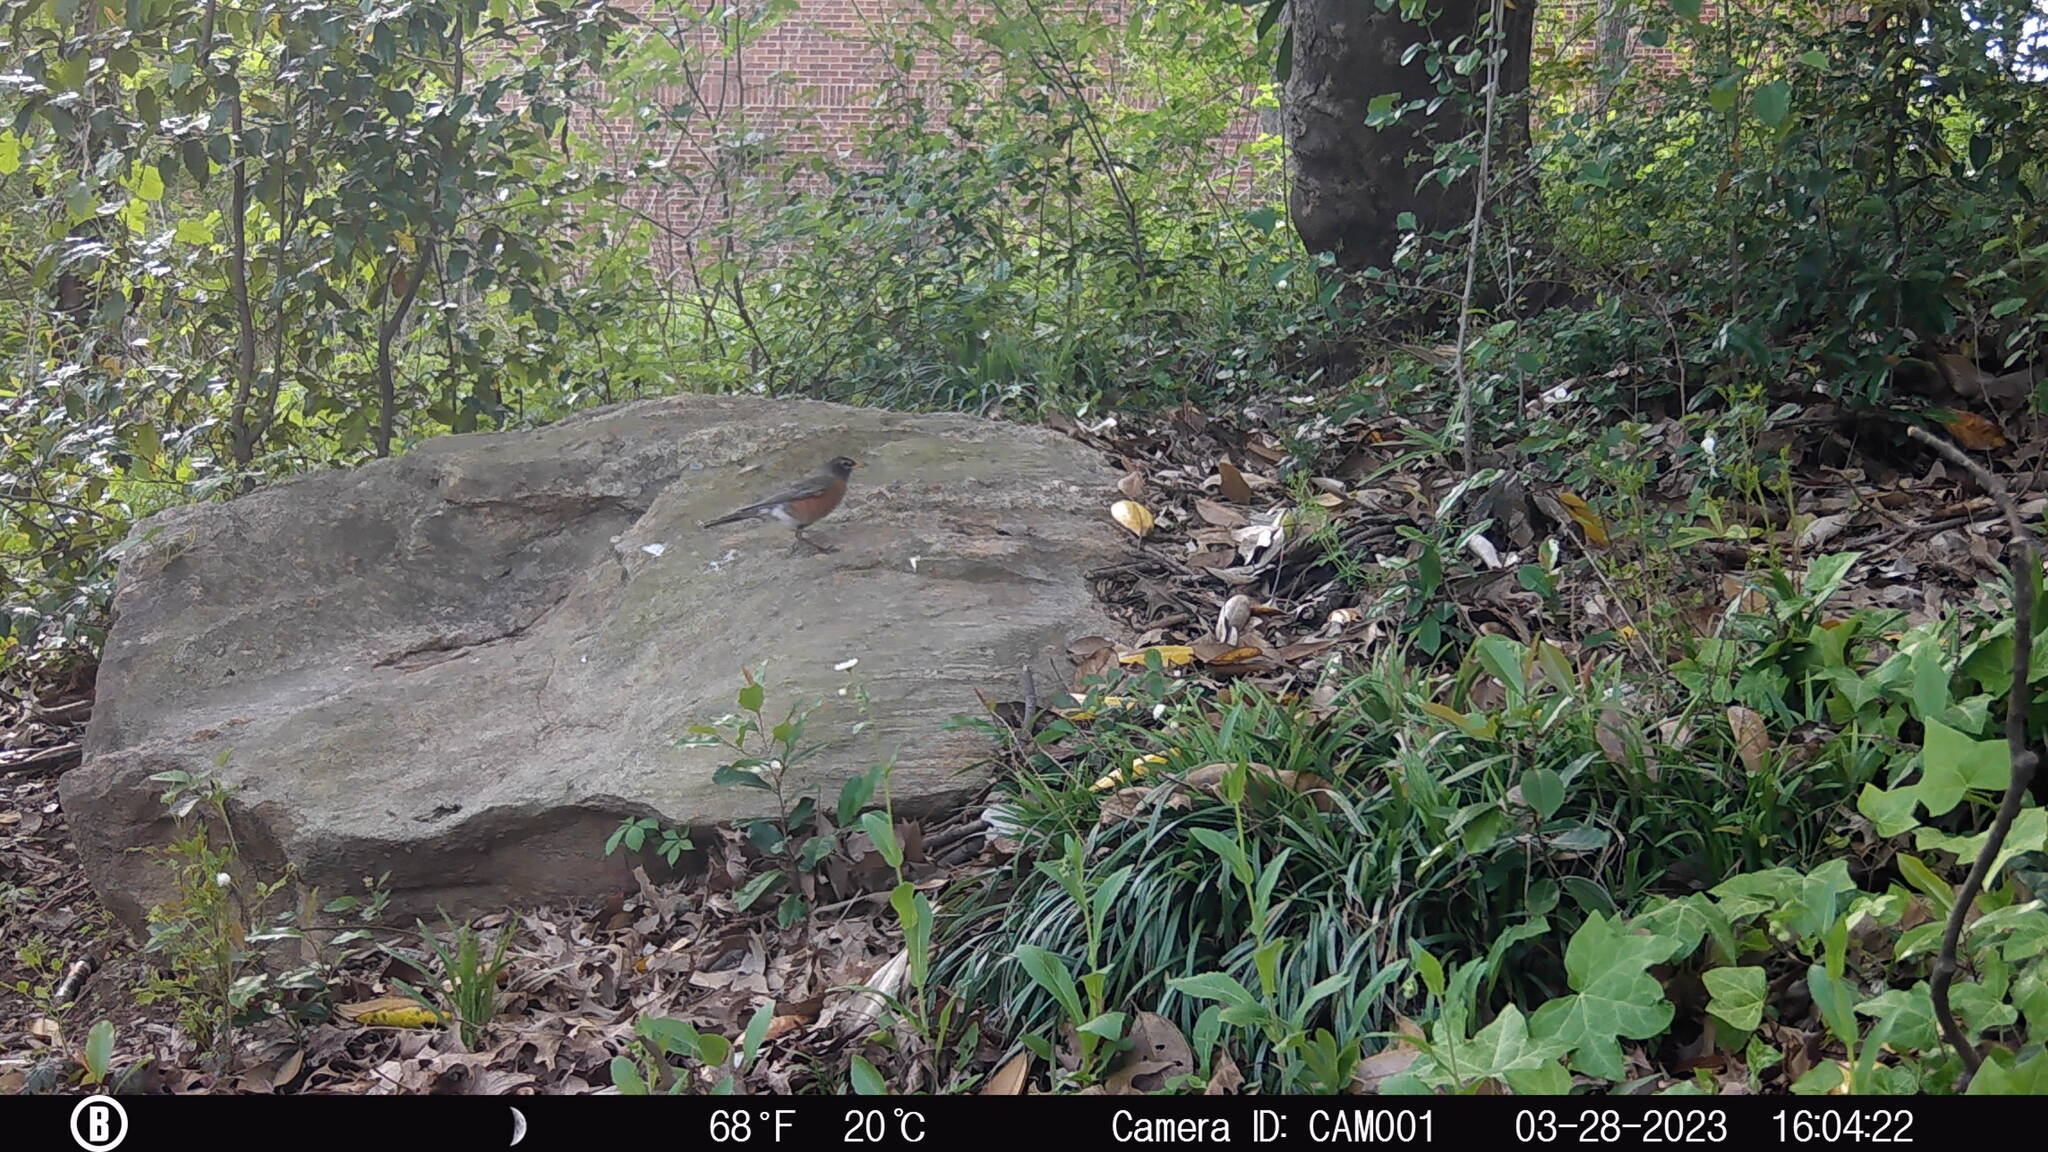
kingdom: Animalia
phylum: Chordata
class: Aves
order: Passeriformes
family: Turdidae
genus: Turdus
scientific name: Turdus migratorius
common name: American robin
